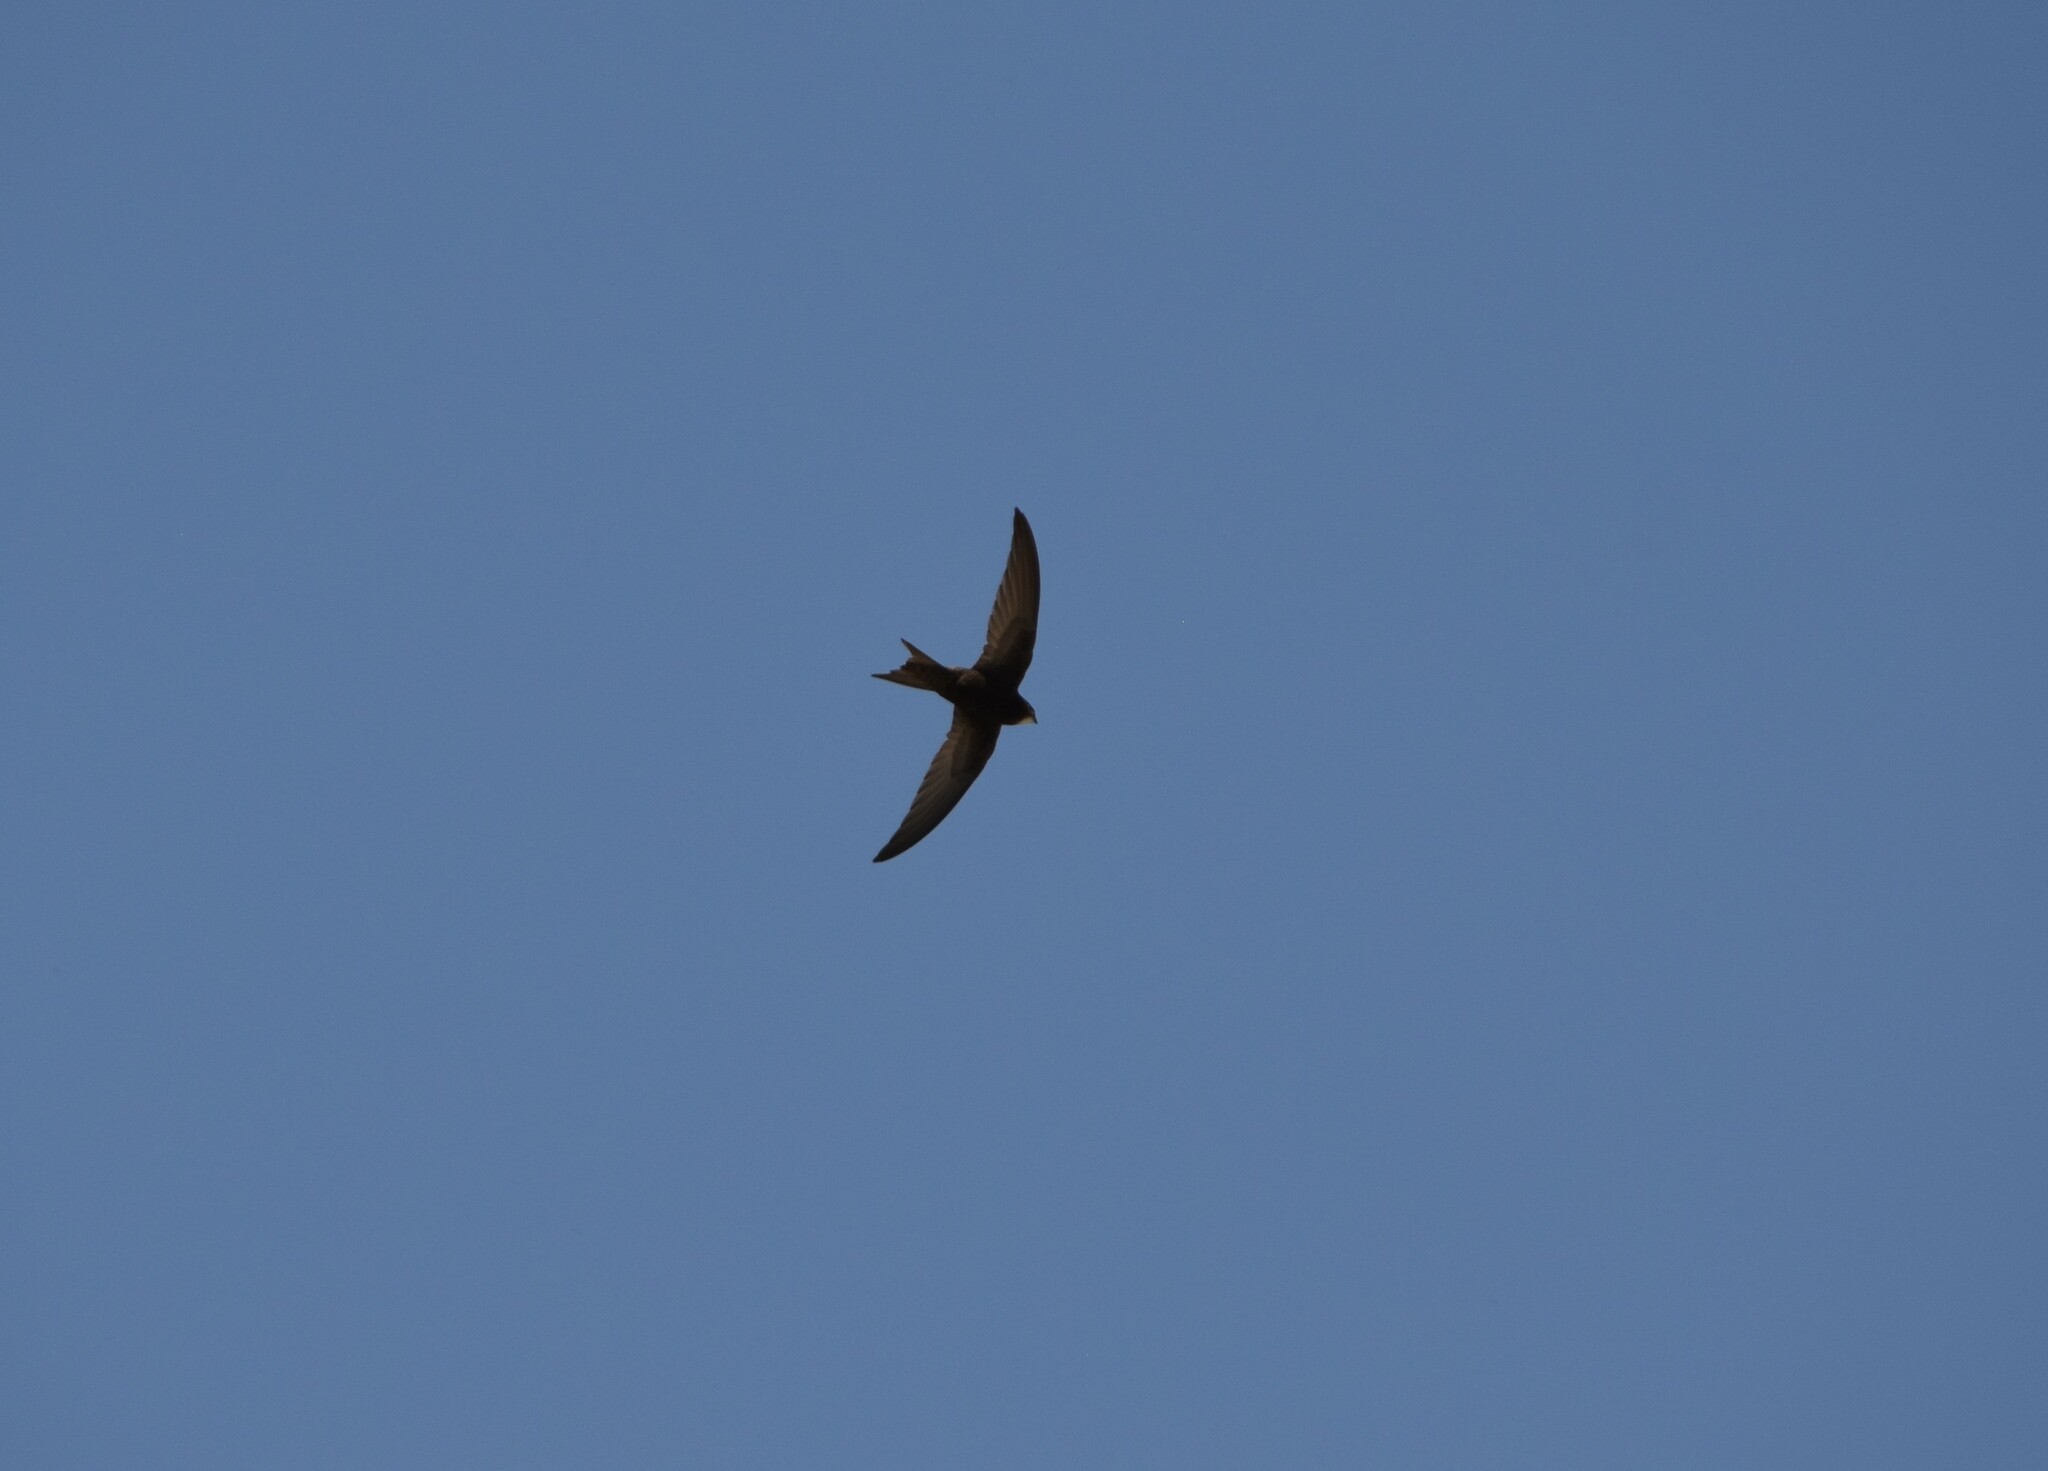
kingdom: Animalia
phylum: Chordata
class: Aves
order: Apodiformes
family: Apodidae
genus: Apus
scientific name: Apus apus
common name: Common swift
